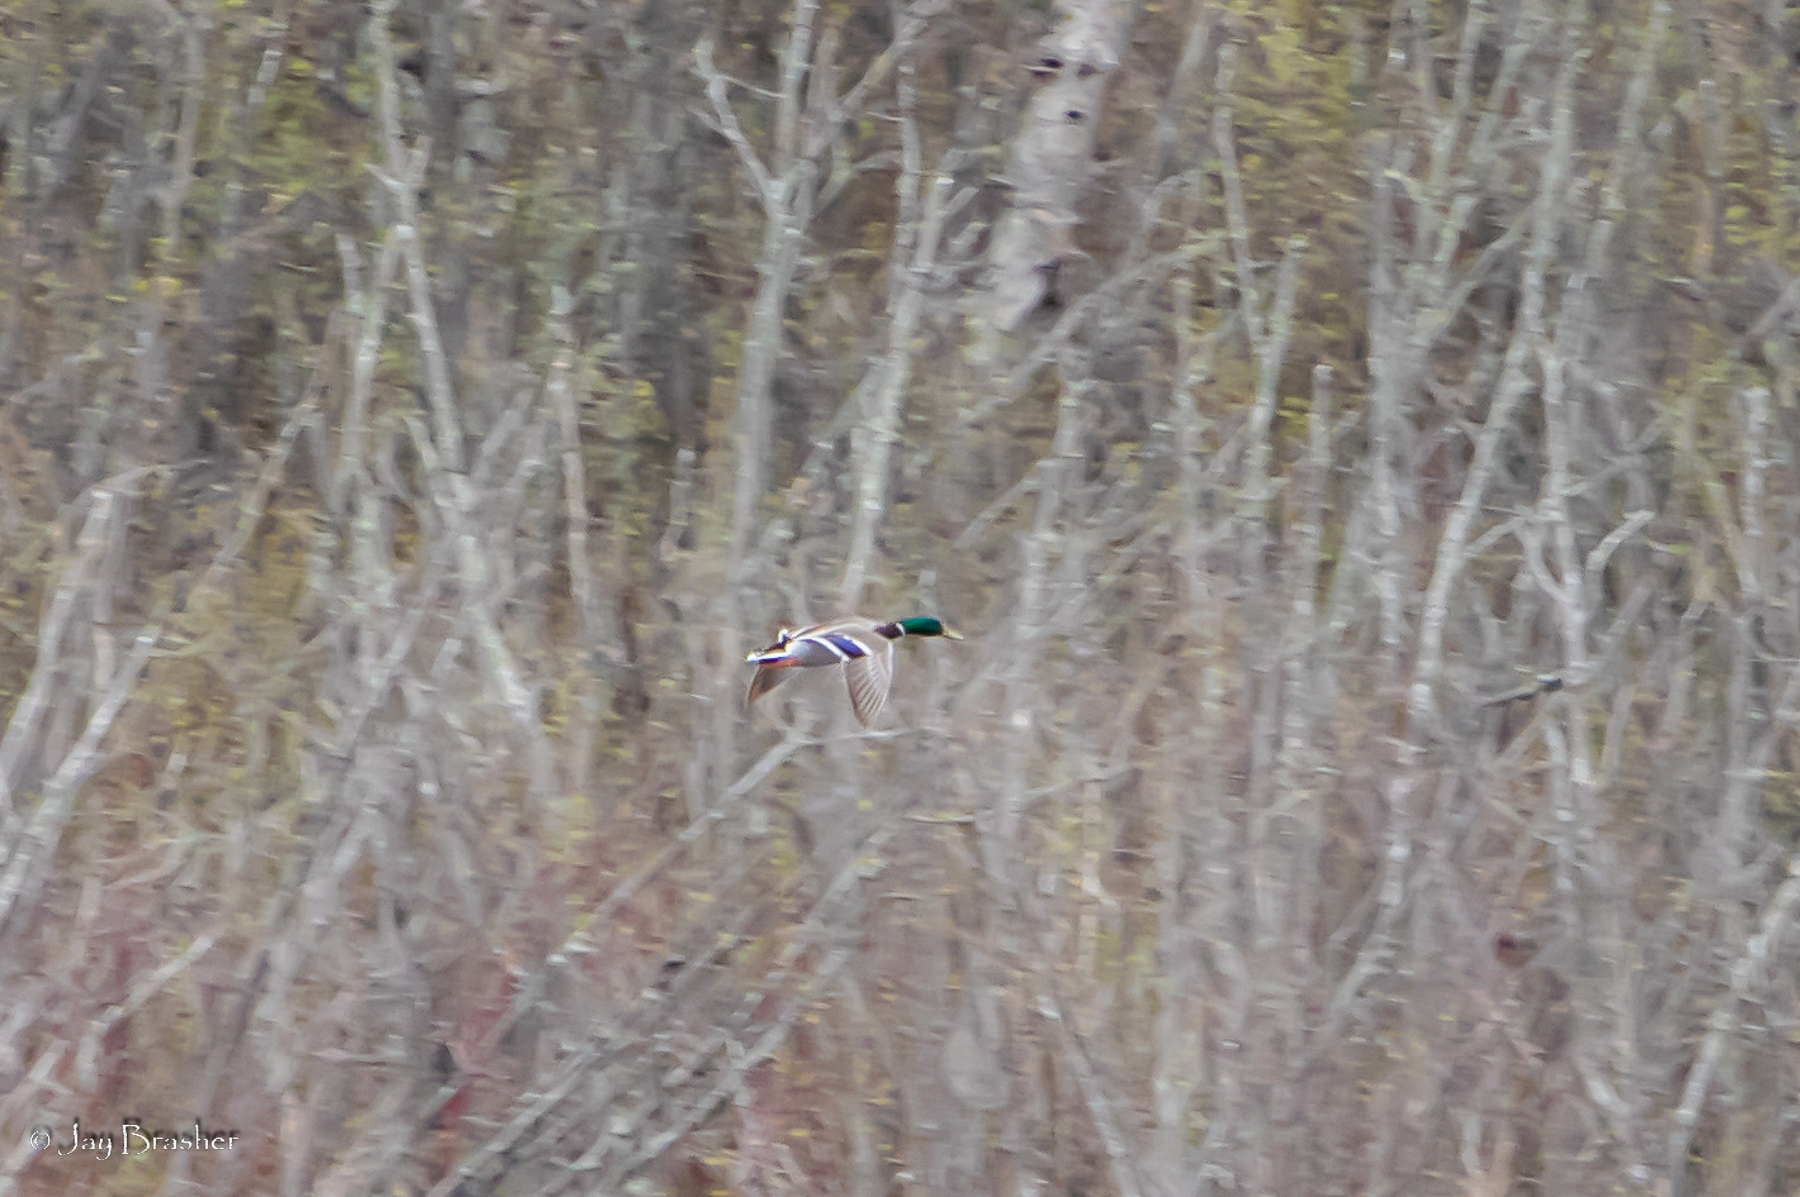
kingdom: Animalia
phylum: Chordata
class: Aves
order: Anseriformes
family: Anatidae
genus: Anas
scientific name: Anas platyrhynchos
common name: Mallard
